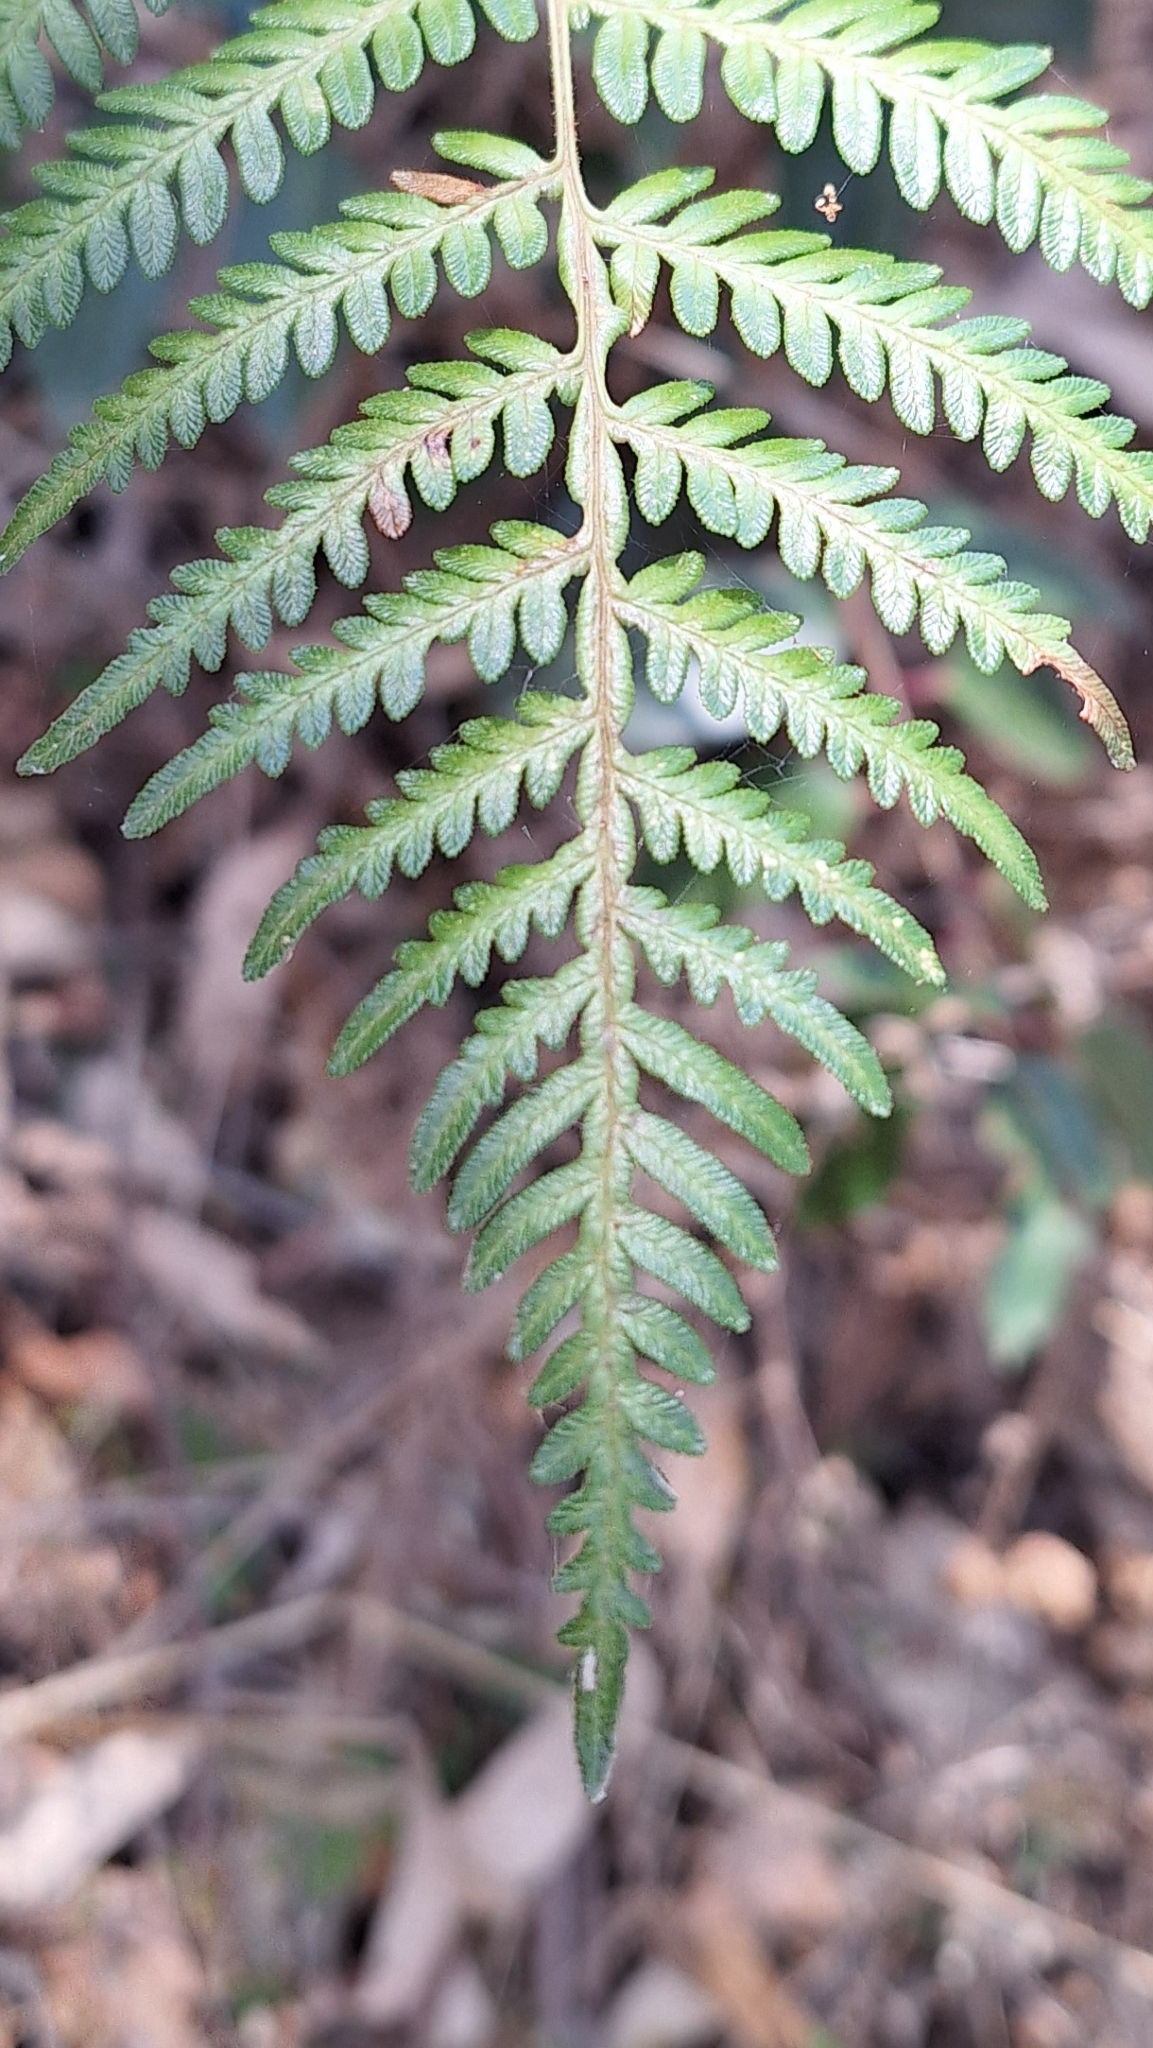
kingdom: Plantae
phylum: Tracheophyta
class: Polypodiopsida
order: Polypodiales
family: Dennstaedtiaceae
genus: Pteridium
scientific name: Pteridium esculentum
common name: Bracken fern
